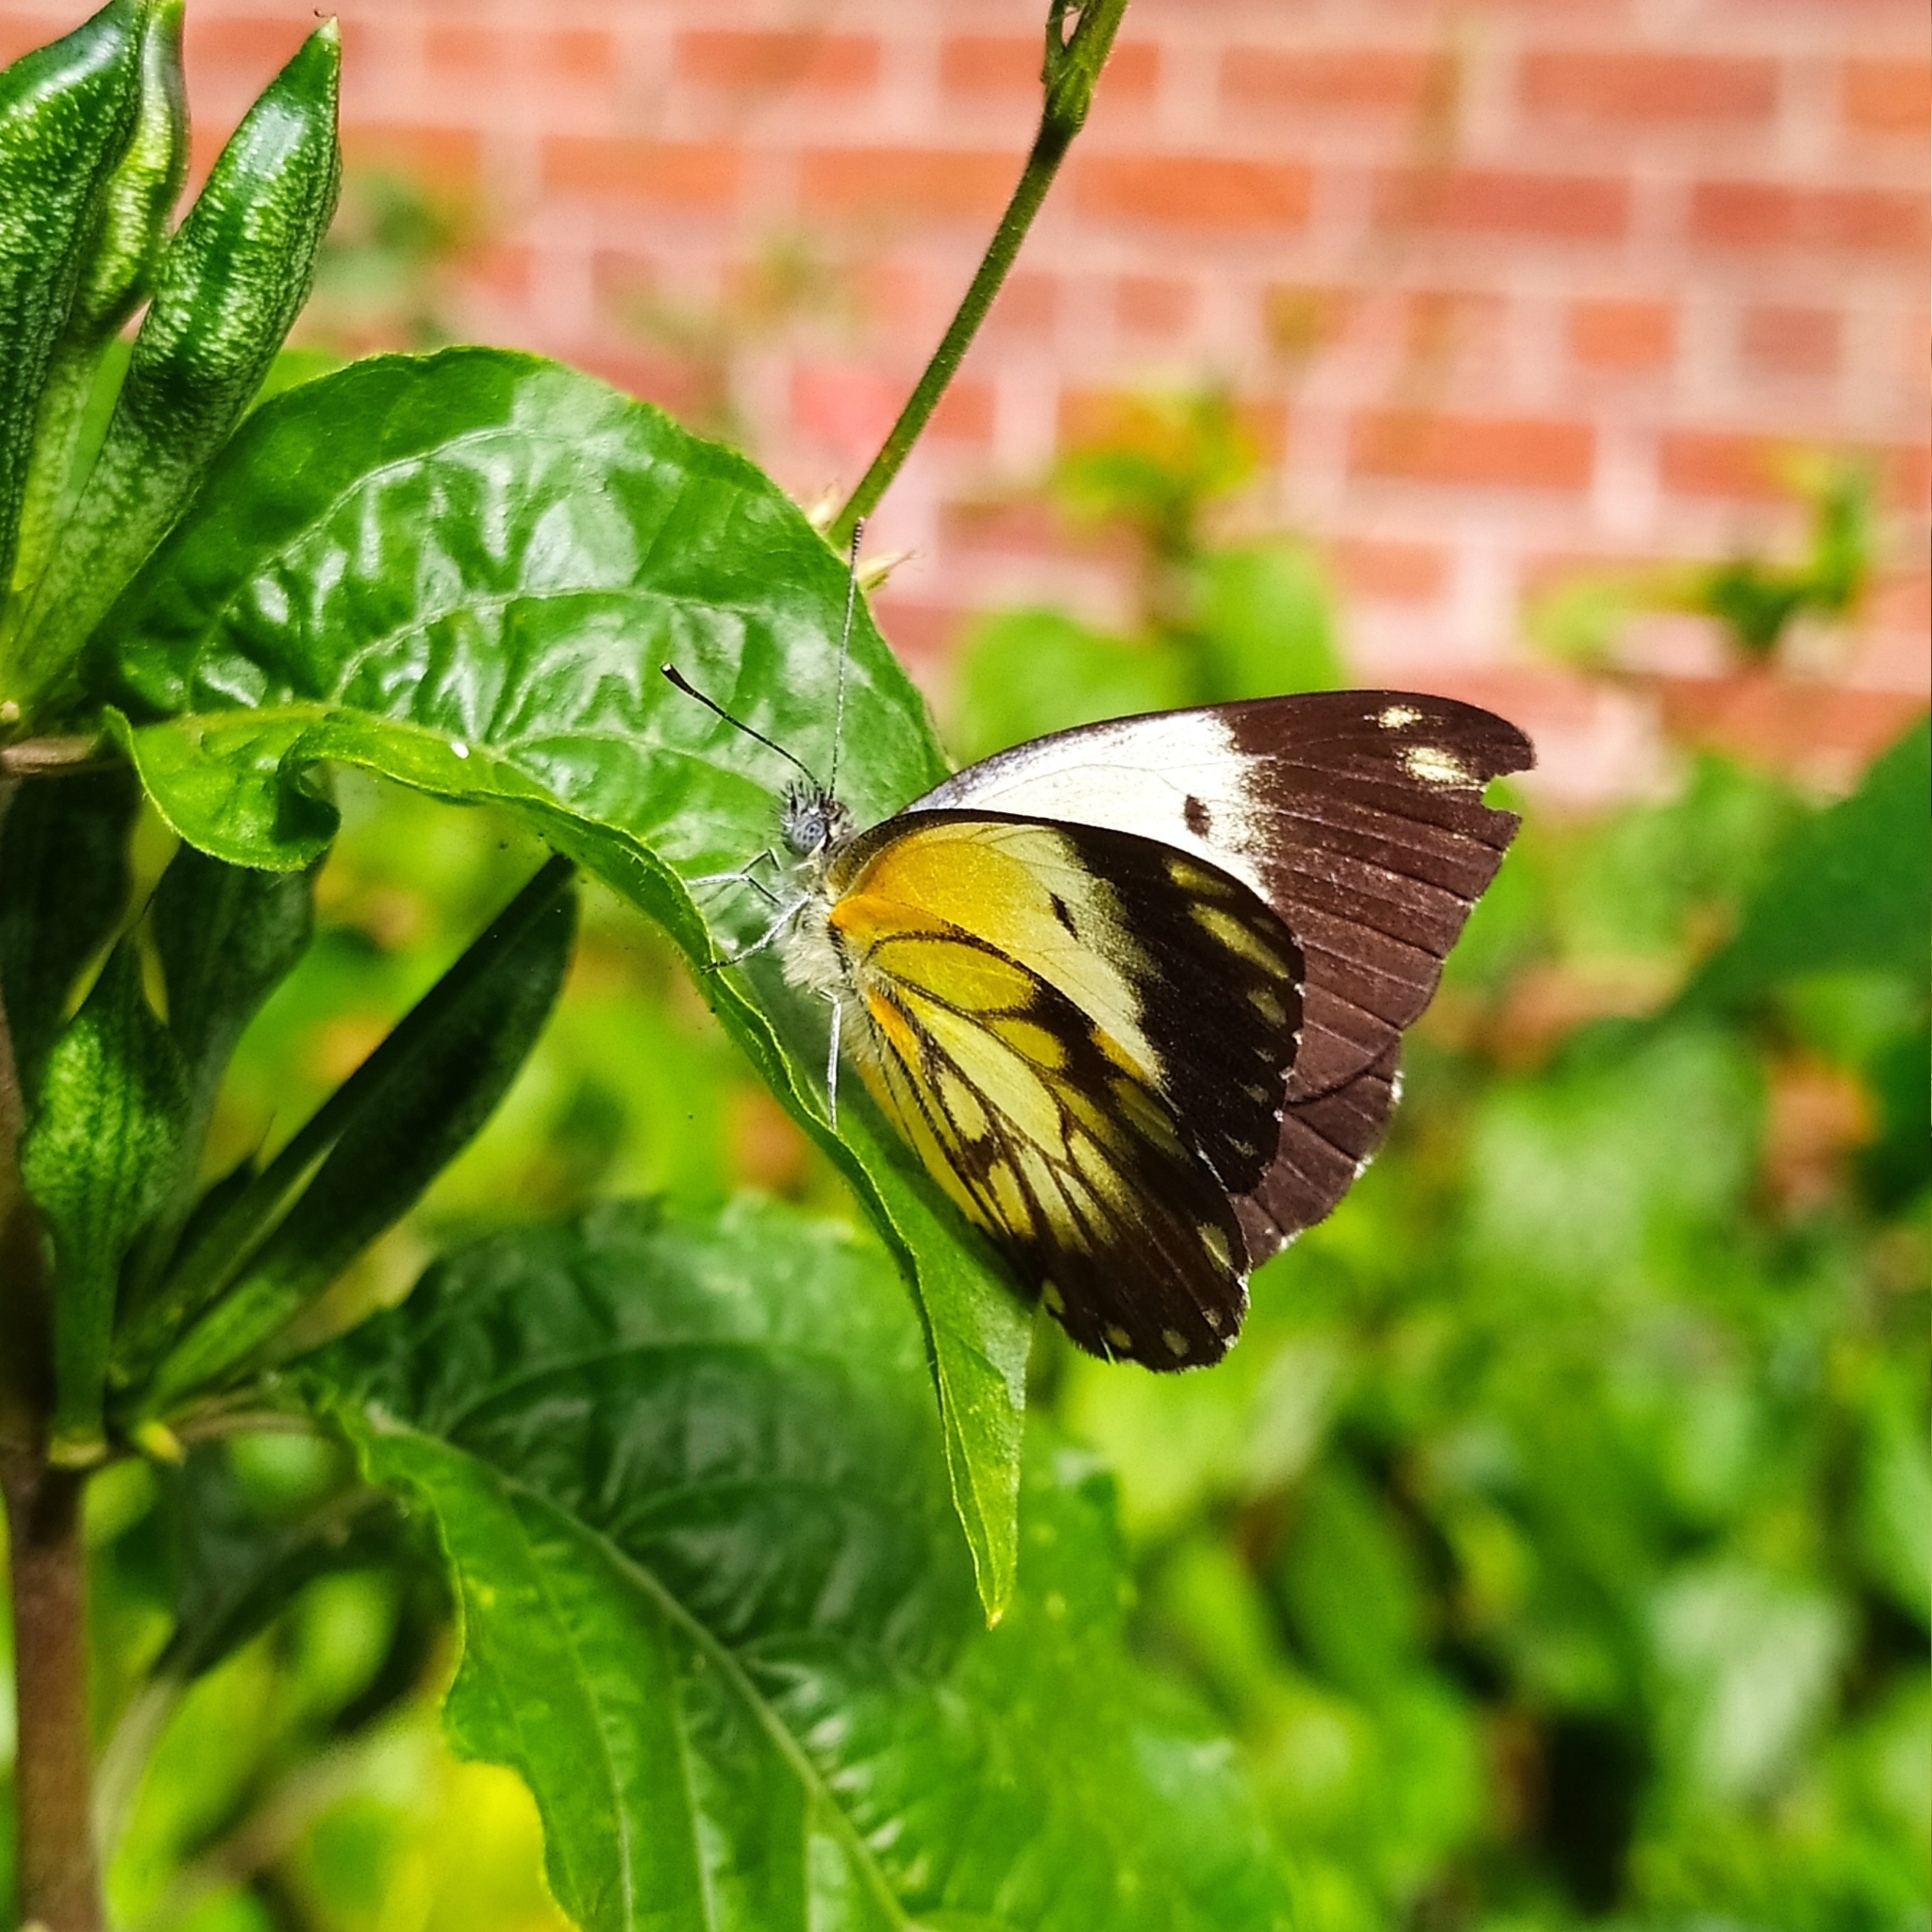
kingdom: Animalia
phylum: Arthropoda
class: Insecta
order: Lepidoptera
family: Pieridae
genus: Belenois
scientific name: Belenois creona
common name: African caper white
